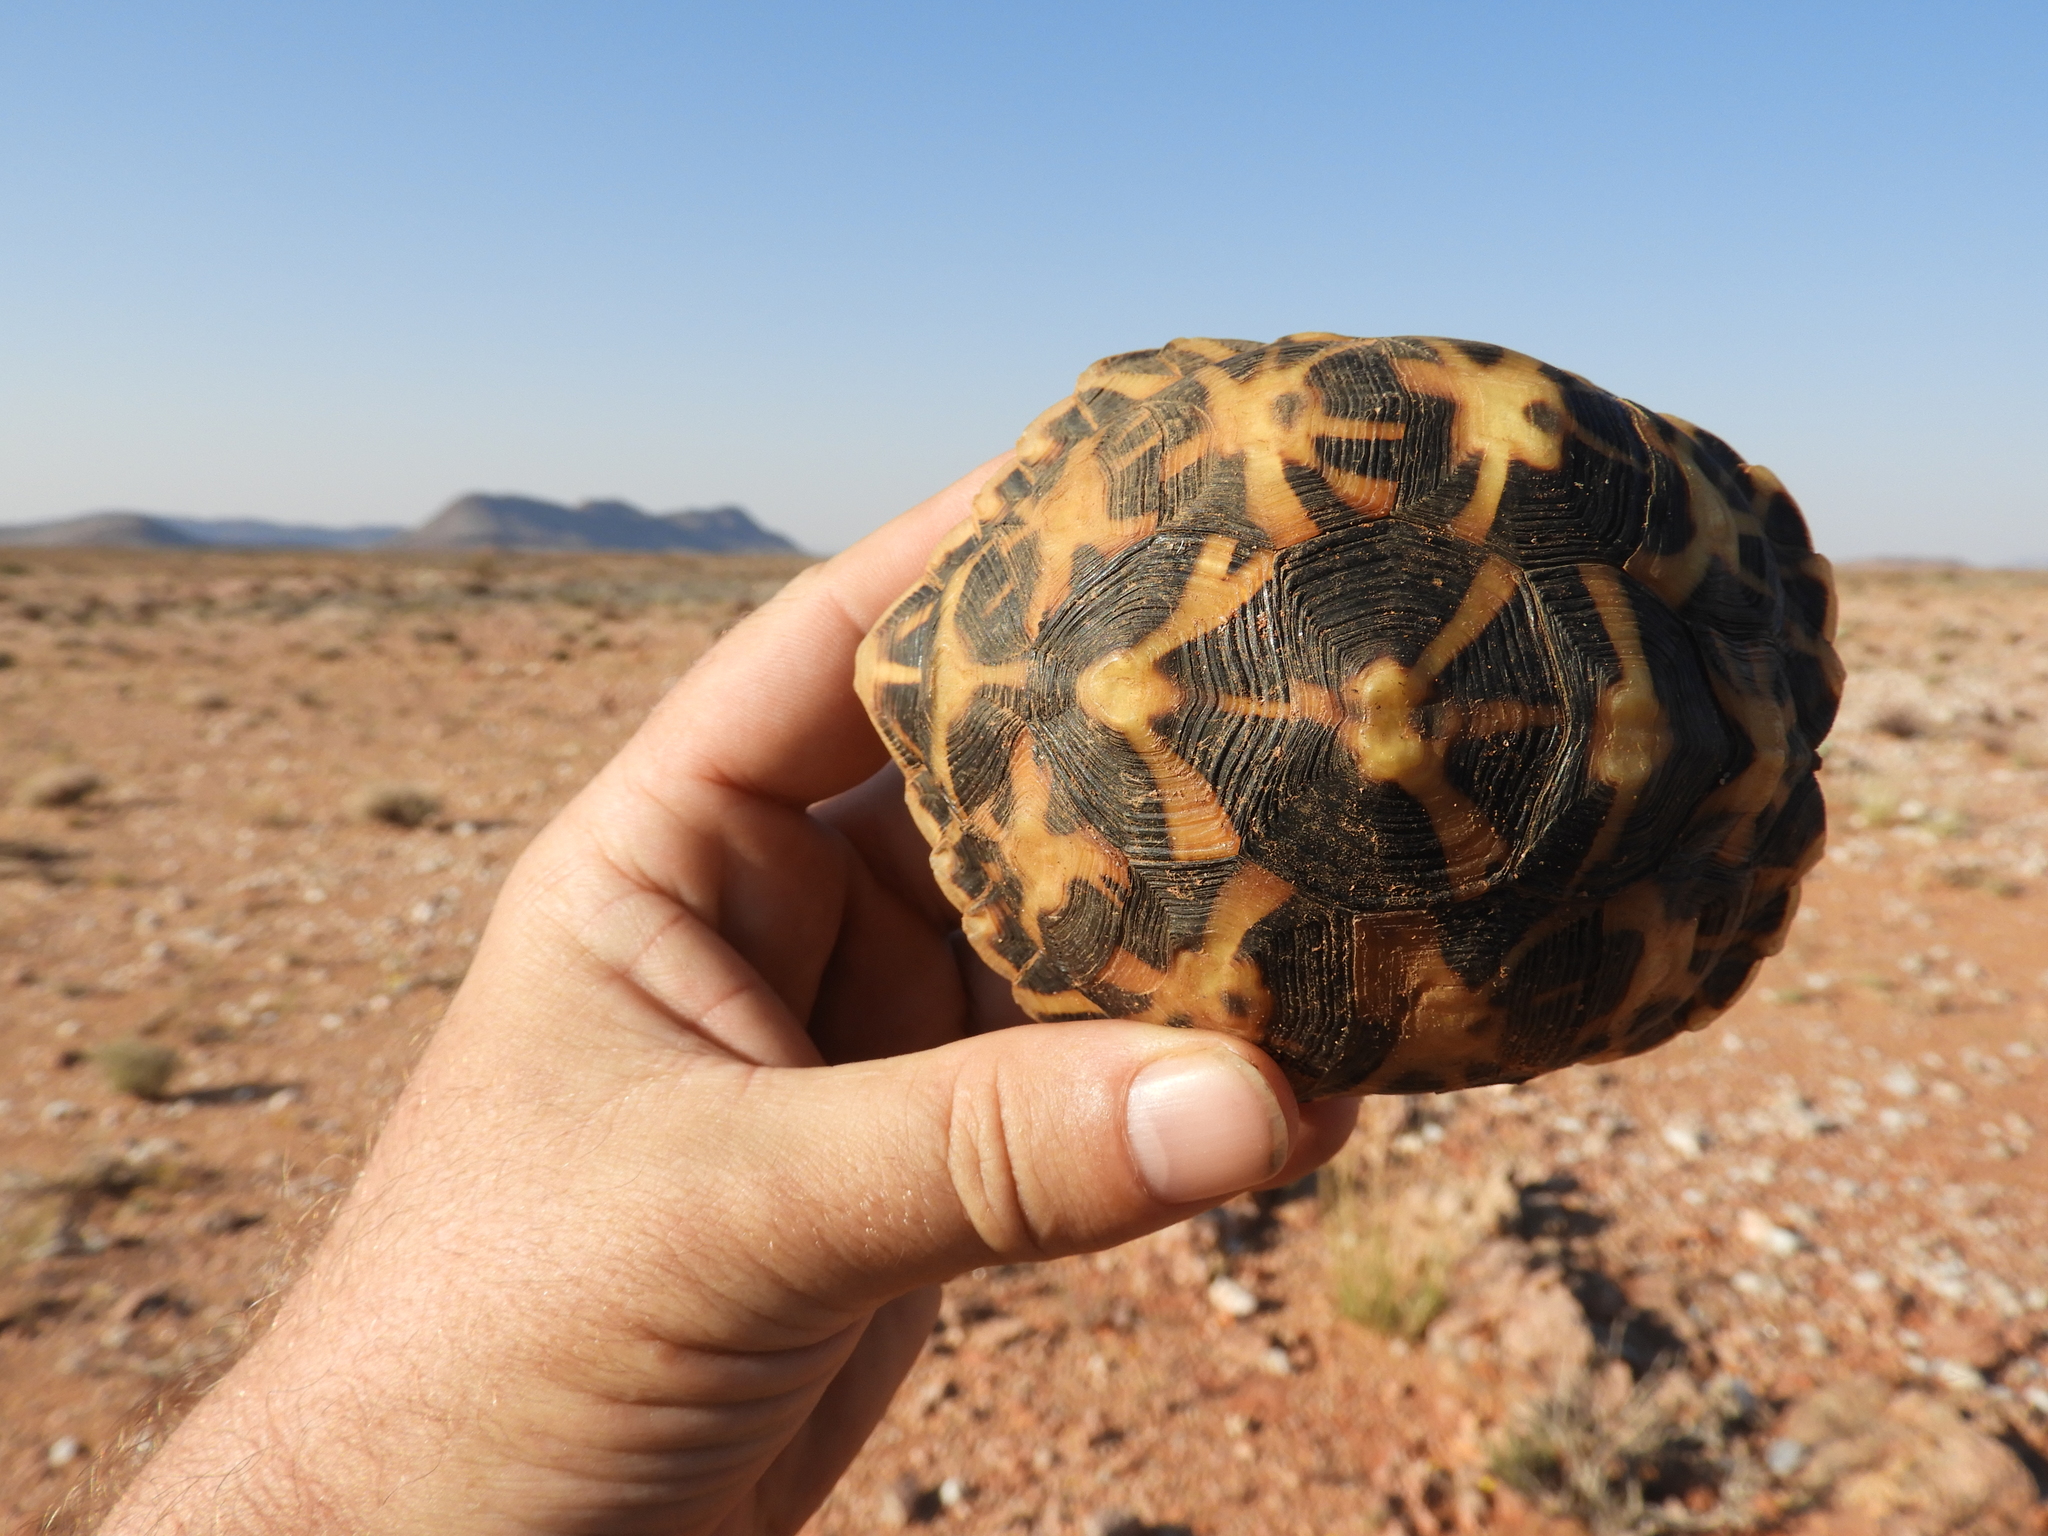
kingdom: Animalia
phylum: Chordata
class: Testudines
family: Testudinidae
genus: Psammobates
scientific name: Psammobates tentorius
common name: Tent tortoise
